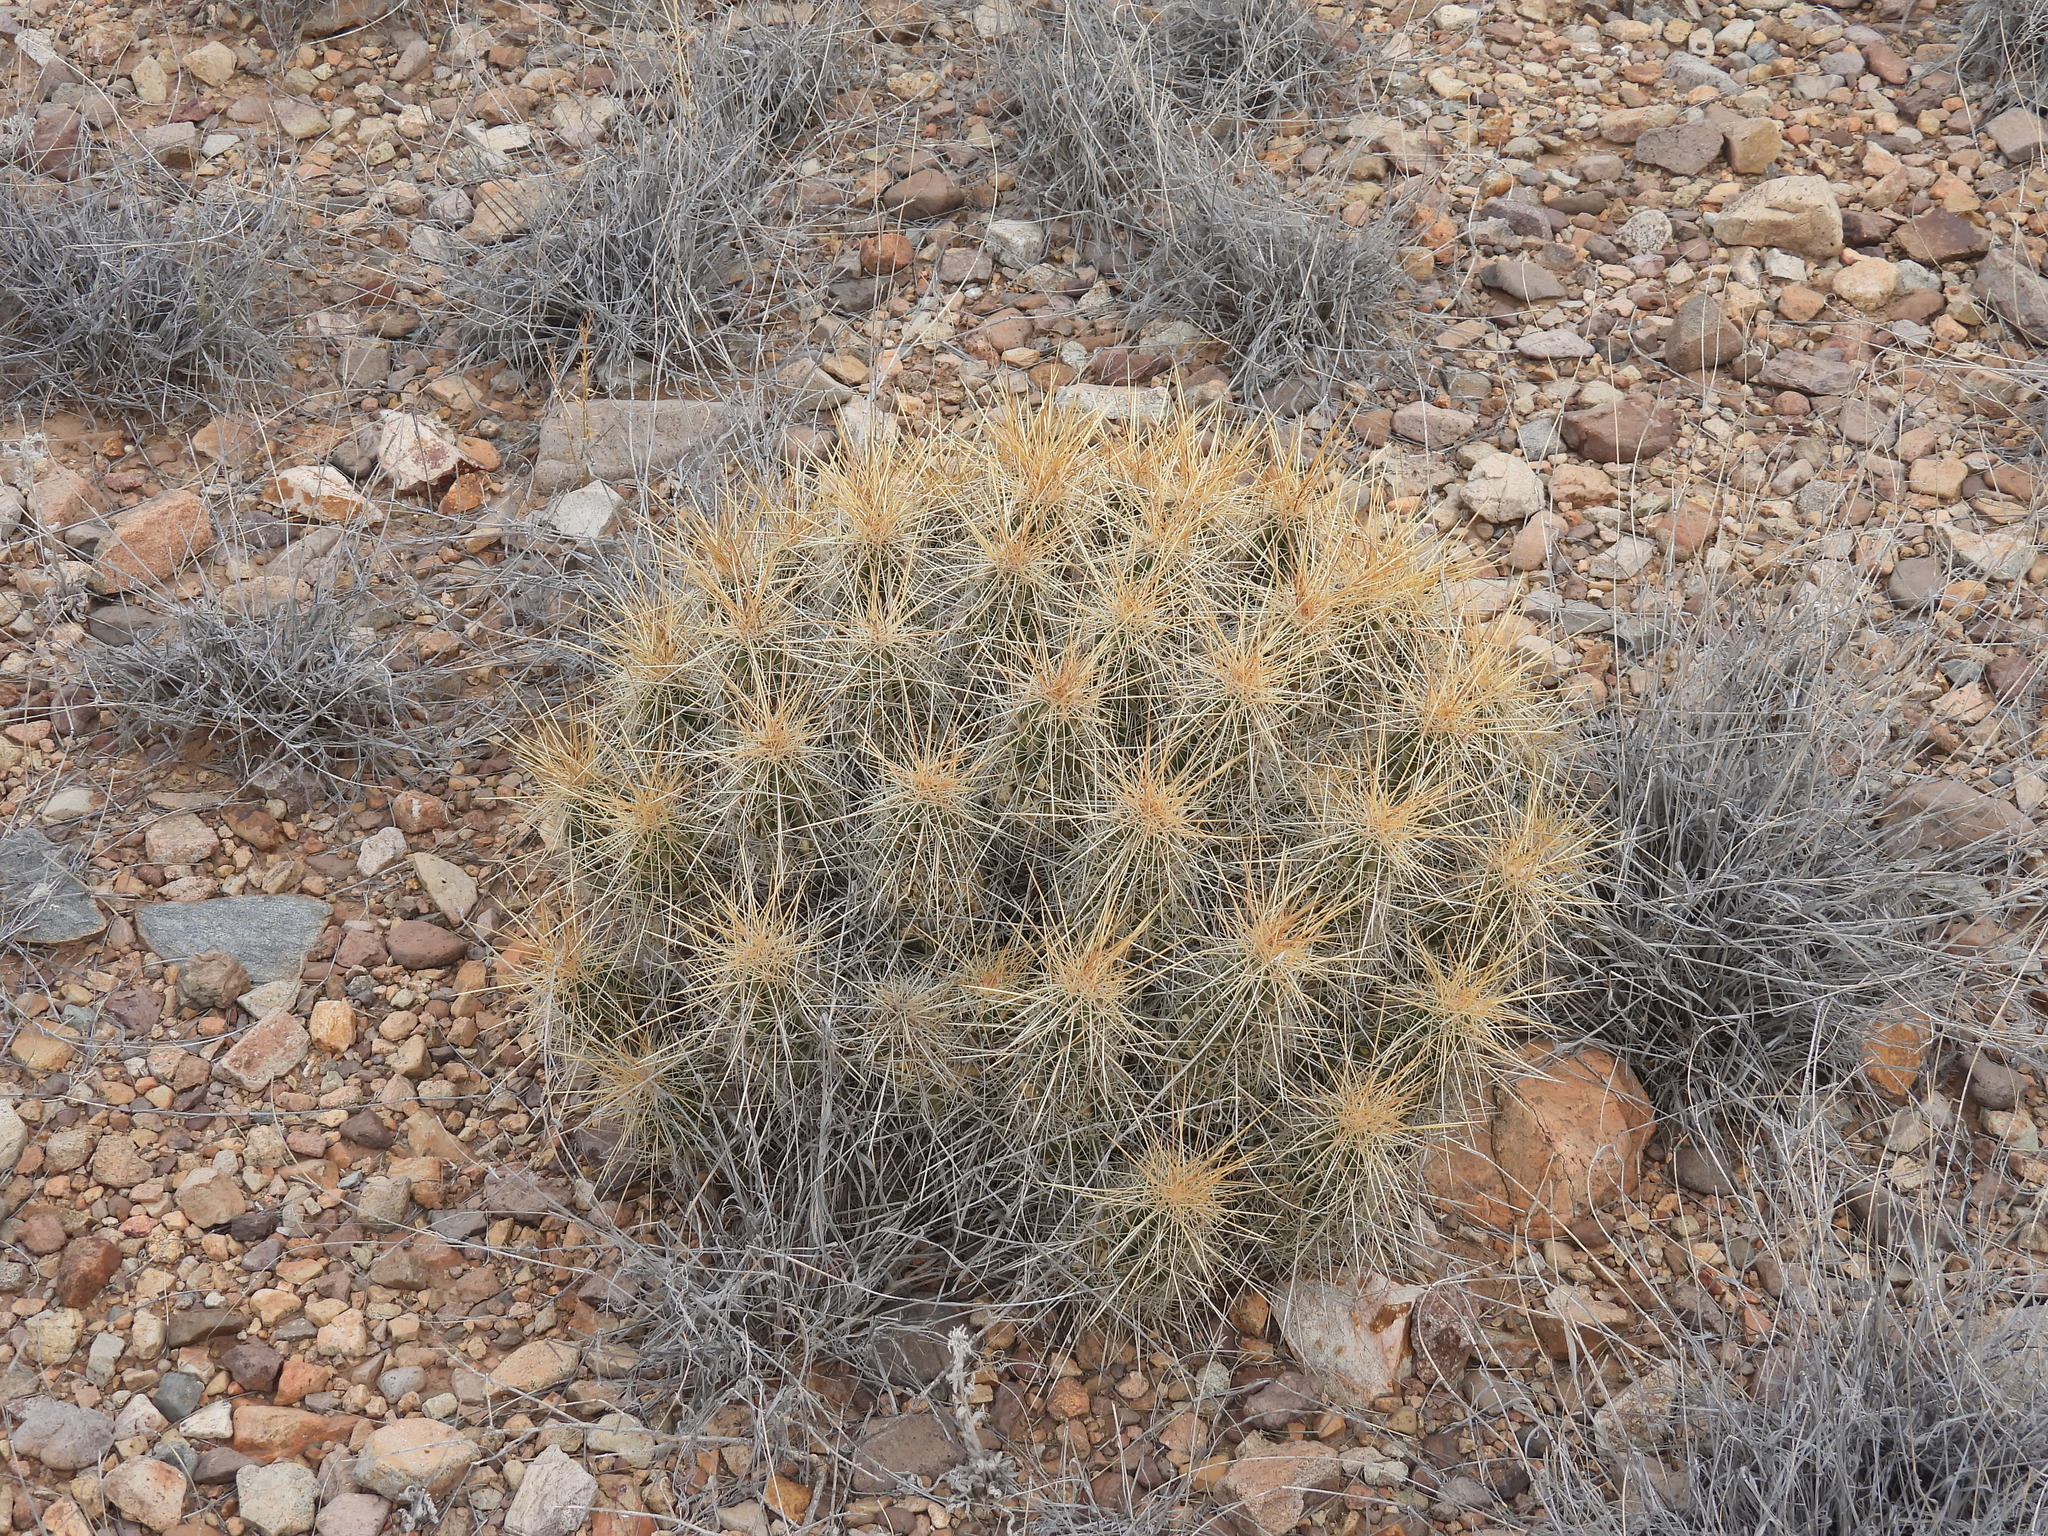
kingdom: Plantae
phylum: Tracheophyta
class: Magnoliopsida
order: Caryophyllales
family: Cactaceae
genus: Echinocereus
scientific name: Echinocereus stramineus
